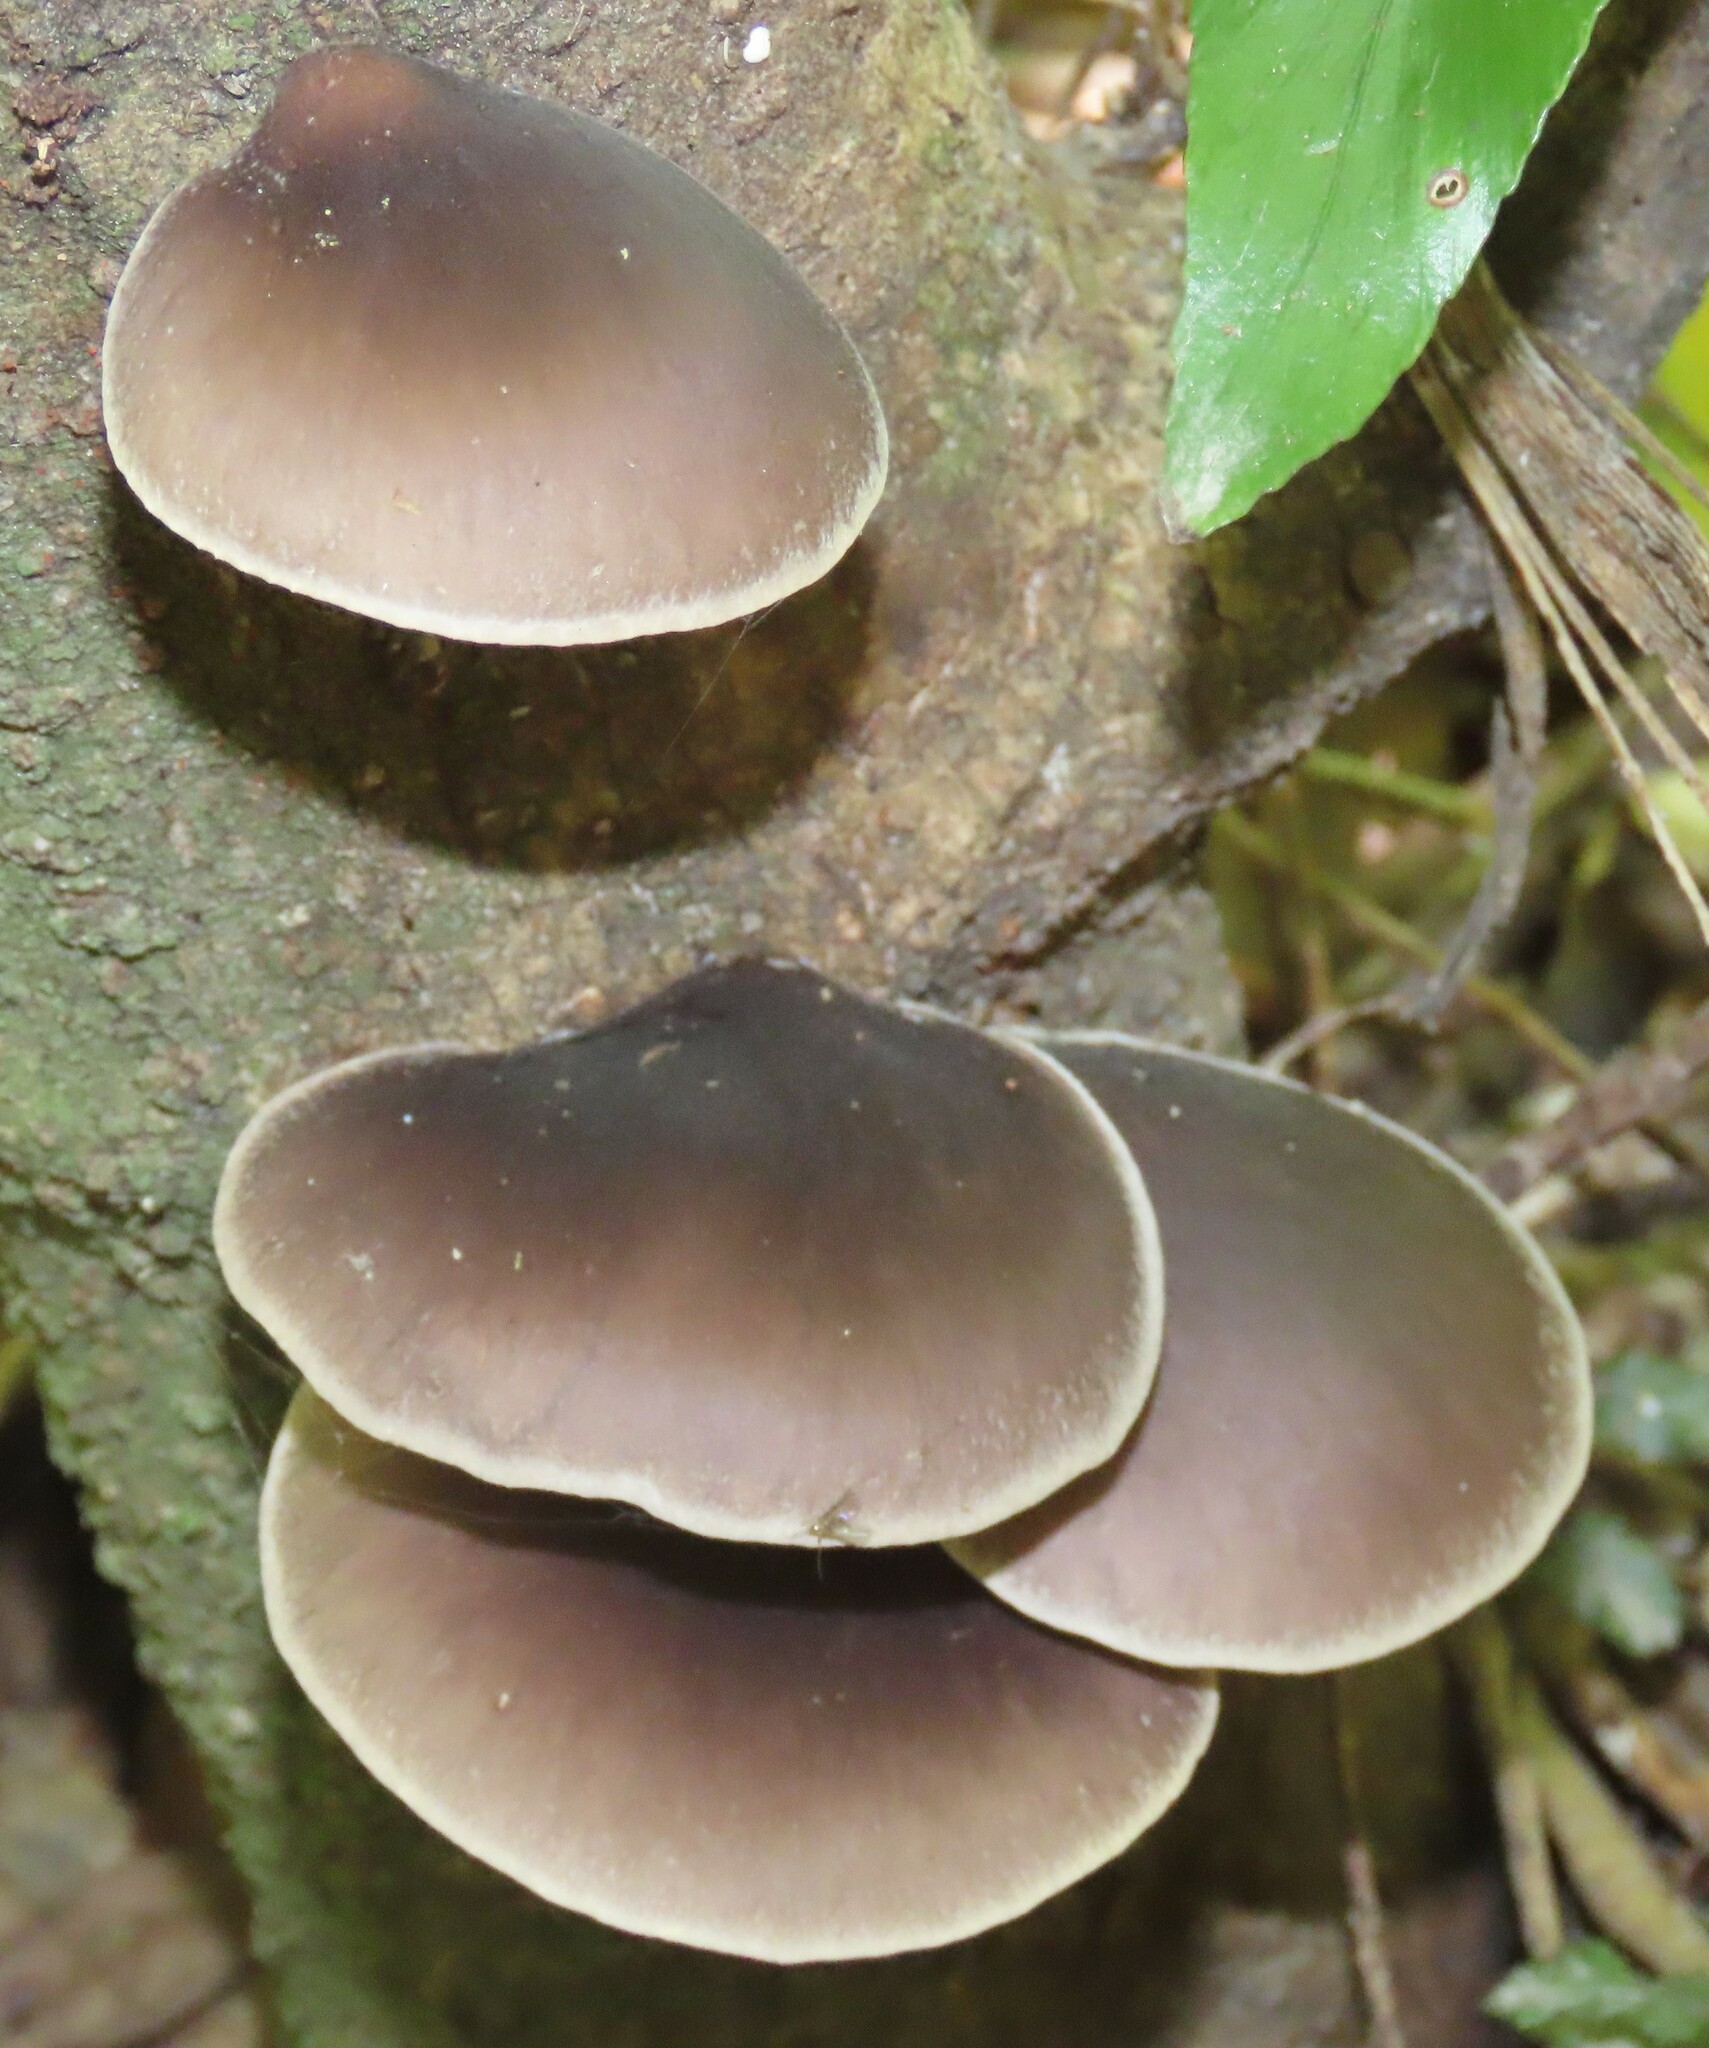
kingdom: Fungi
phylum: Basidiomycota
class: Agaricomycetes
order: Agaricales
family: Pleurotaceae
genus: Pleurotus
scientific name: Pleurotus australis
